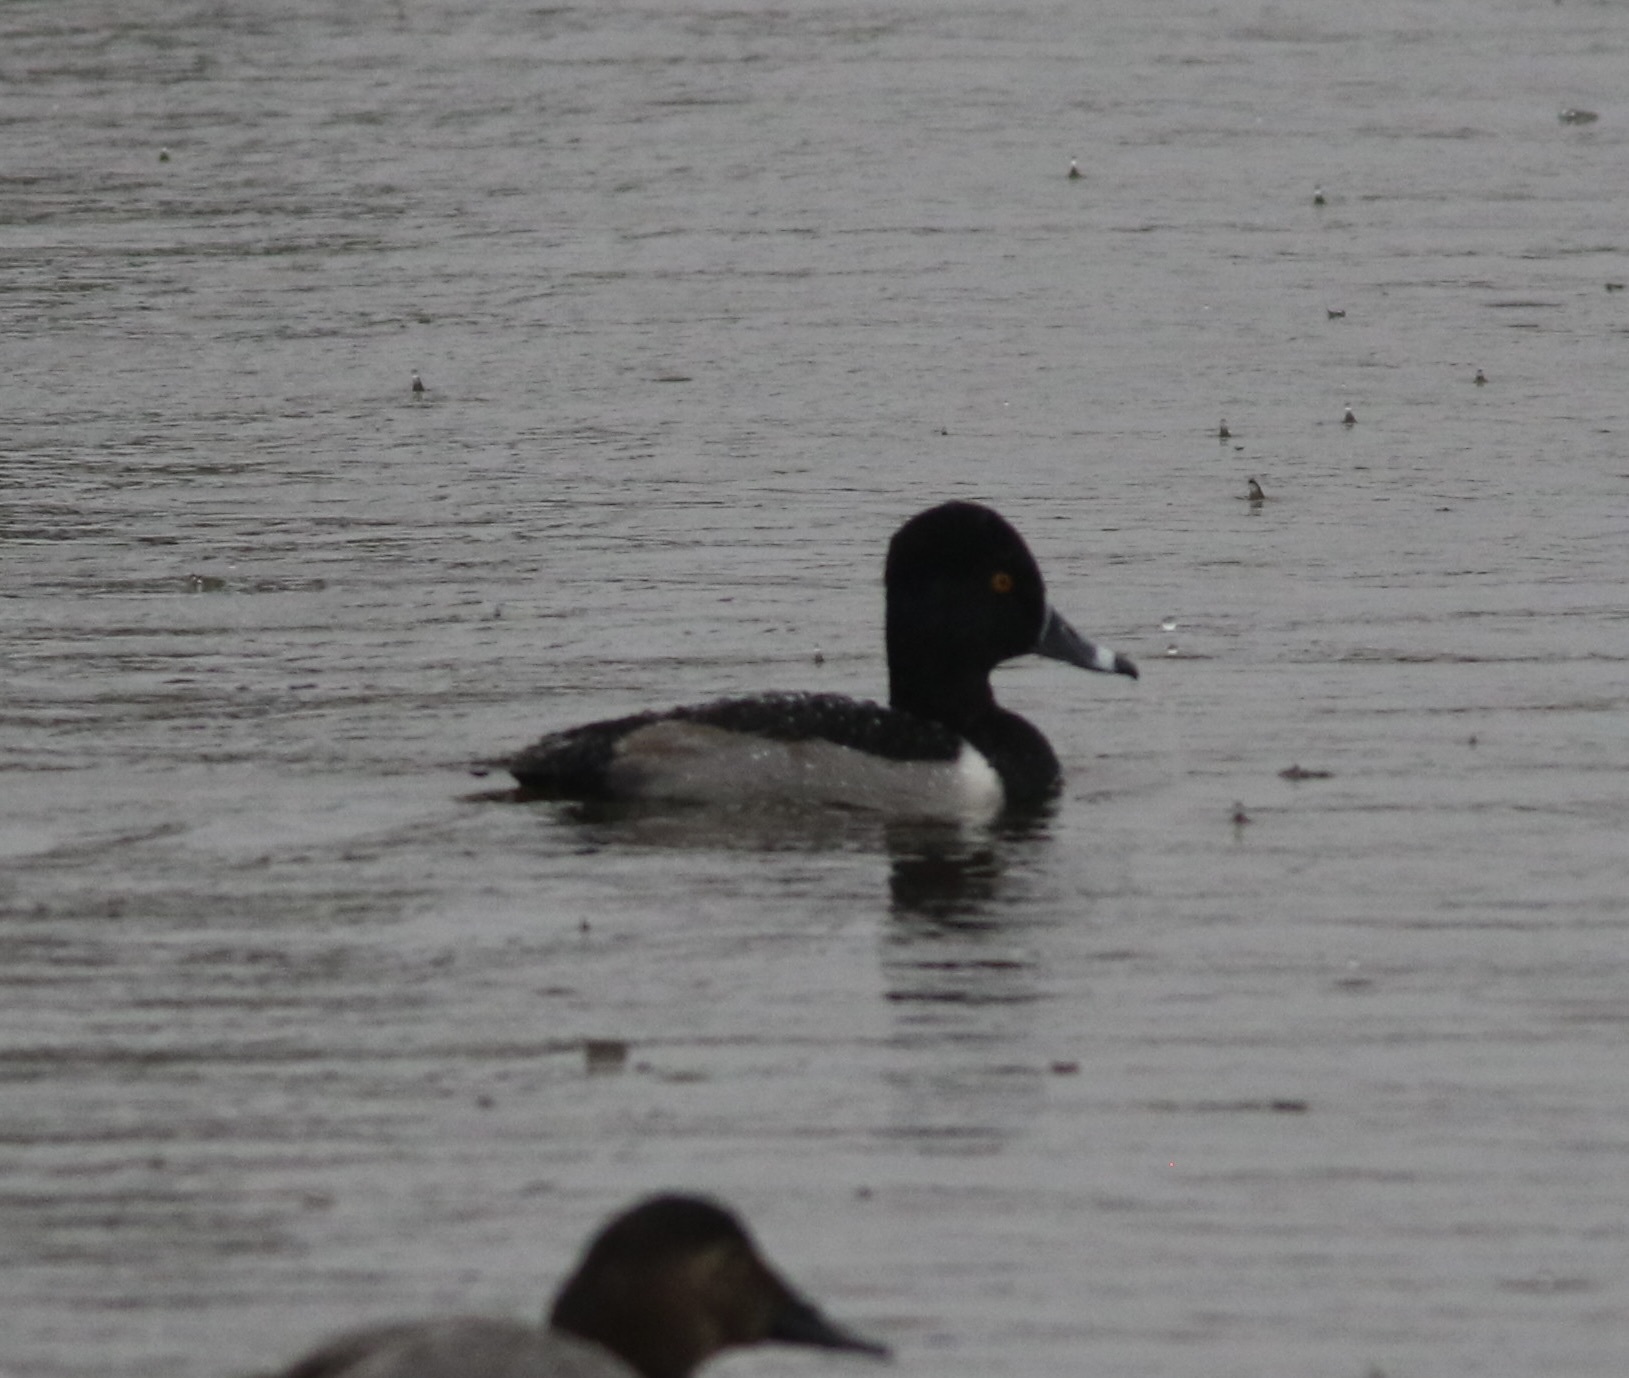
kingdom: Animalia
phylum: Chordata
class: Aves
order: Anseriformes
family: Anatidae
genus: Aythya
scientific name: Aythya collaris
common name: Ring-necked duck
